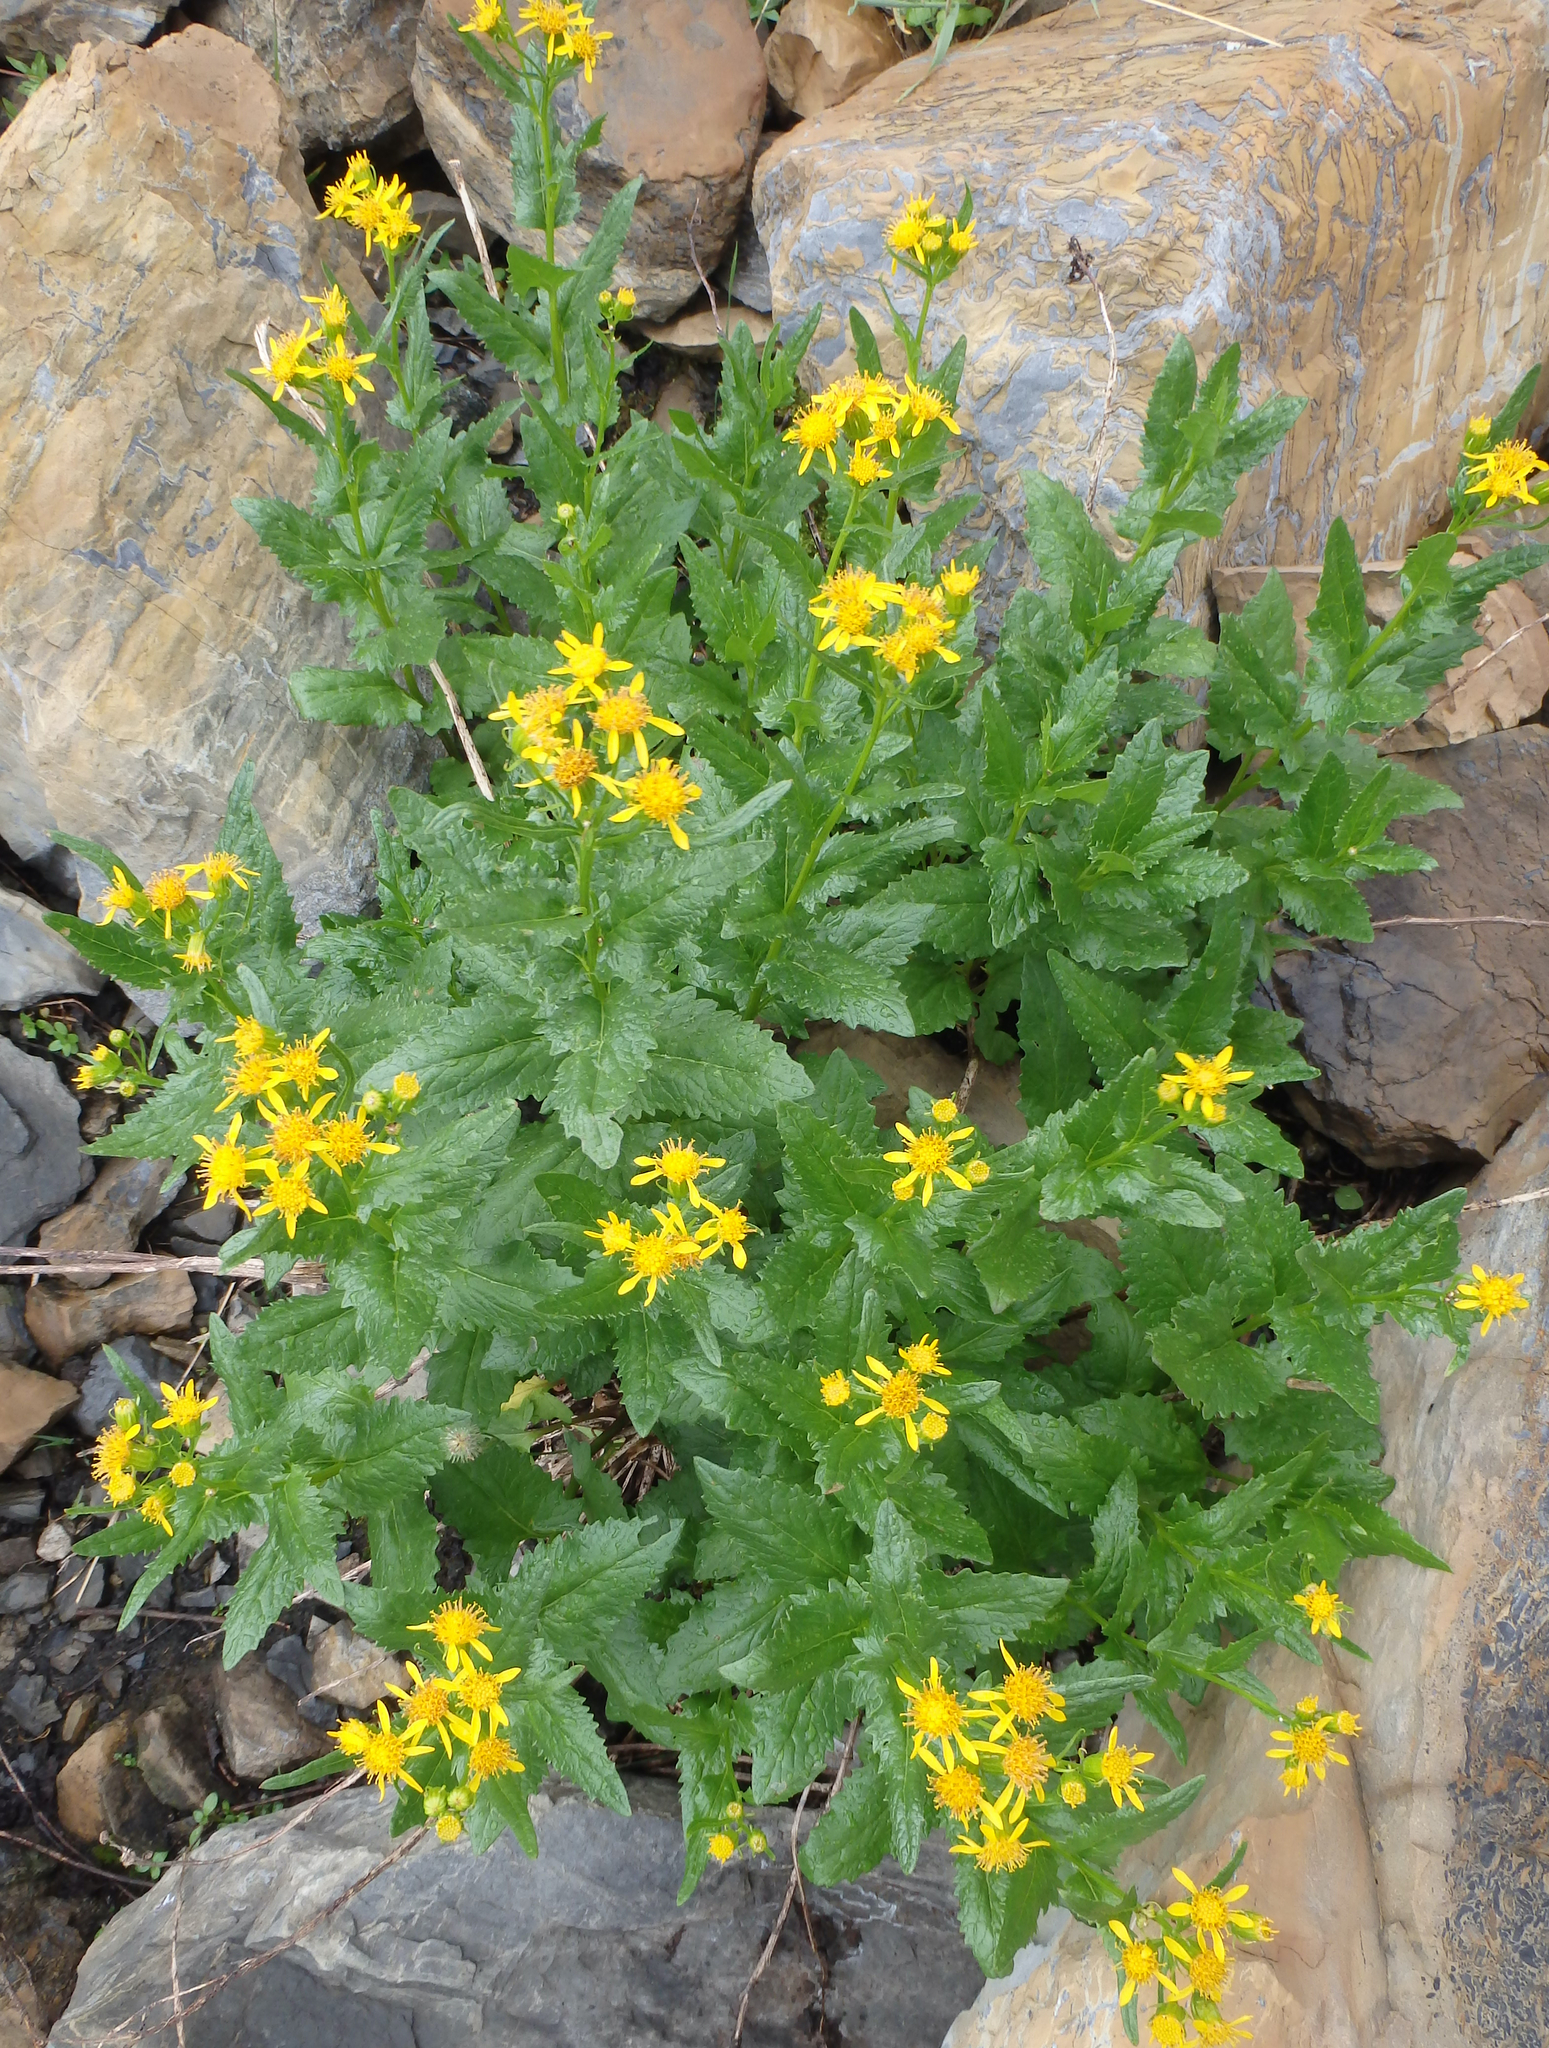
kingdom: Plantae
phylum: Tracheophyta
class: Magnoliopsida
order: Asterales
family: Asteraceae
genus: Senecio
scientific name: Senecio triangularis
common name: Arrowleaf butterweed
